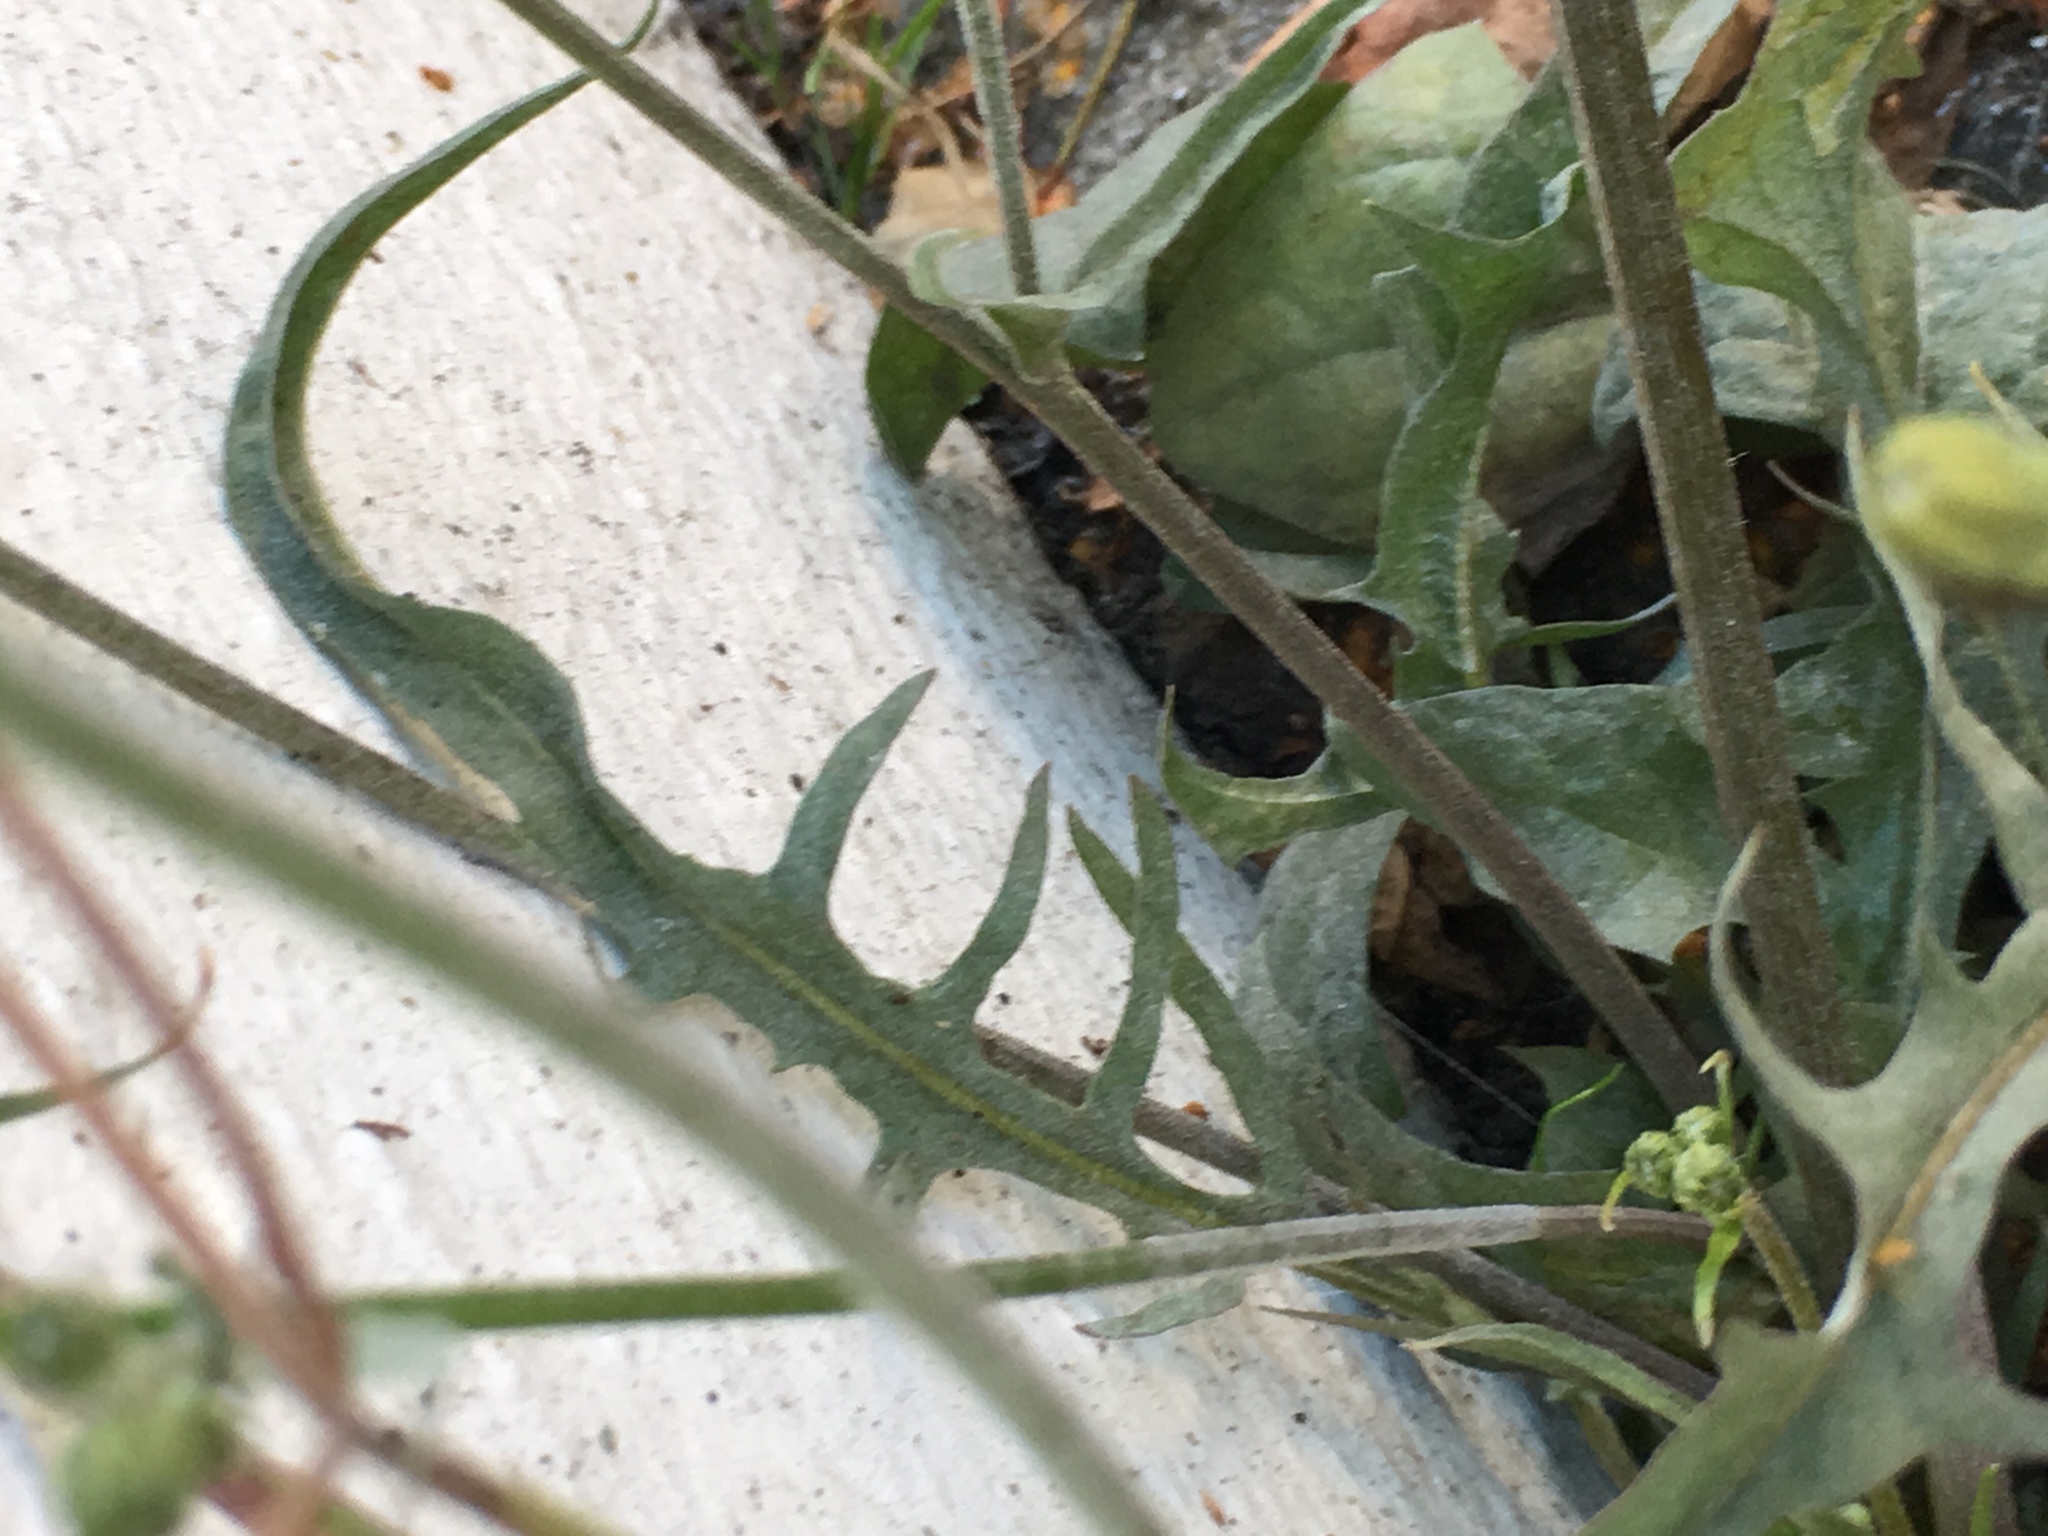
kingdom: Plantae
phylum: Tracheophyta
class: Magnoliopsida
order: Asterales
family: Asteraceae
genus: Crepis
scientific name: Crepis capillaris
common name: Smooth hawksbeard
